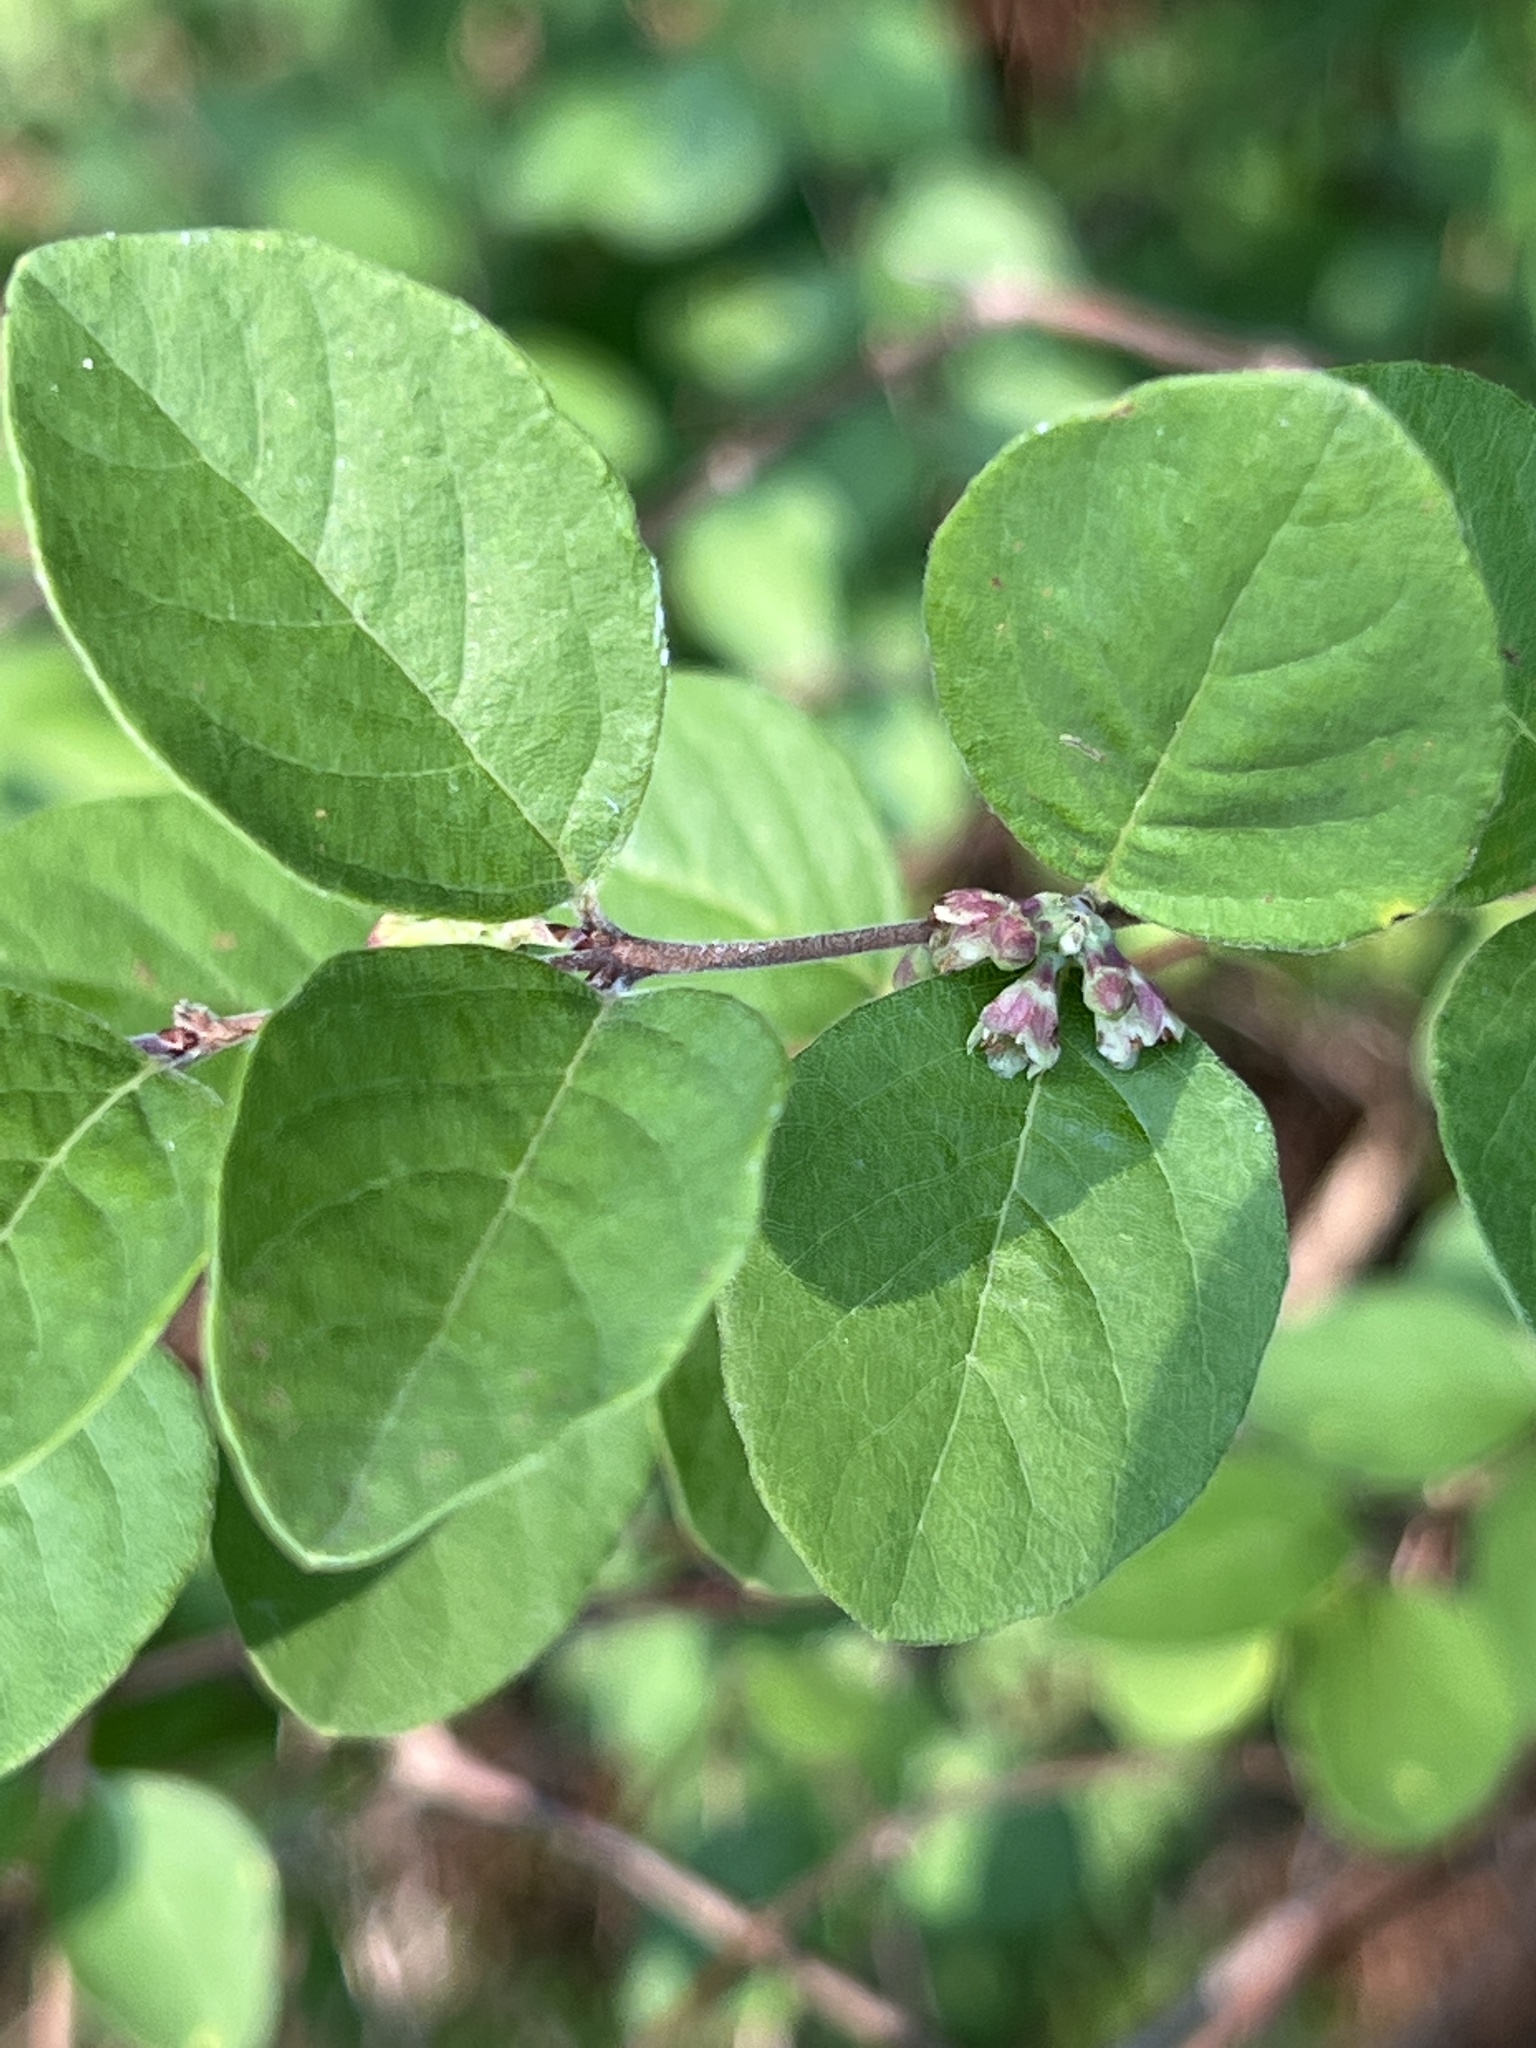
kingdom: Plantae
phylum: Tracheophyta
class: Magnoliopsida
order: Dipsacales
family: Caprifoliaceae
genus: Symphoricarpos
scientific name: Symphoricarpos orbiculatus
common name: Coralberry
